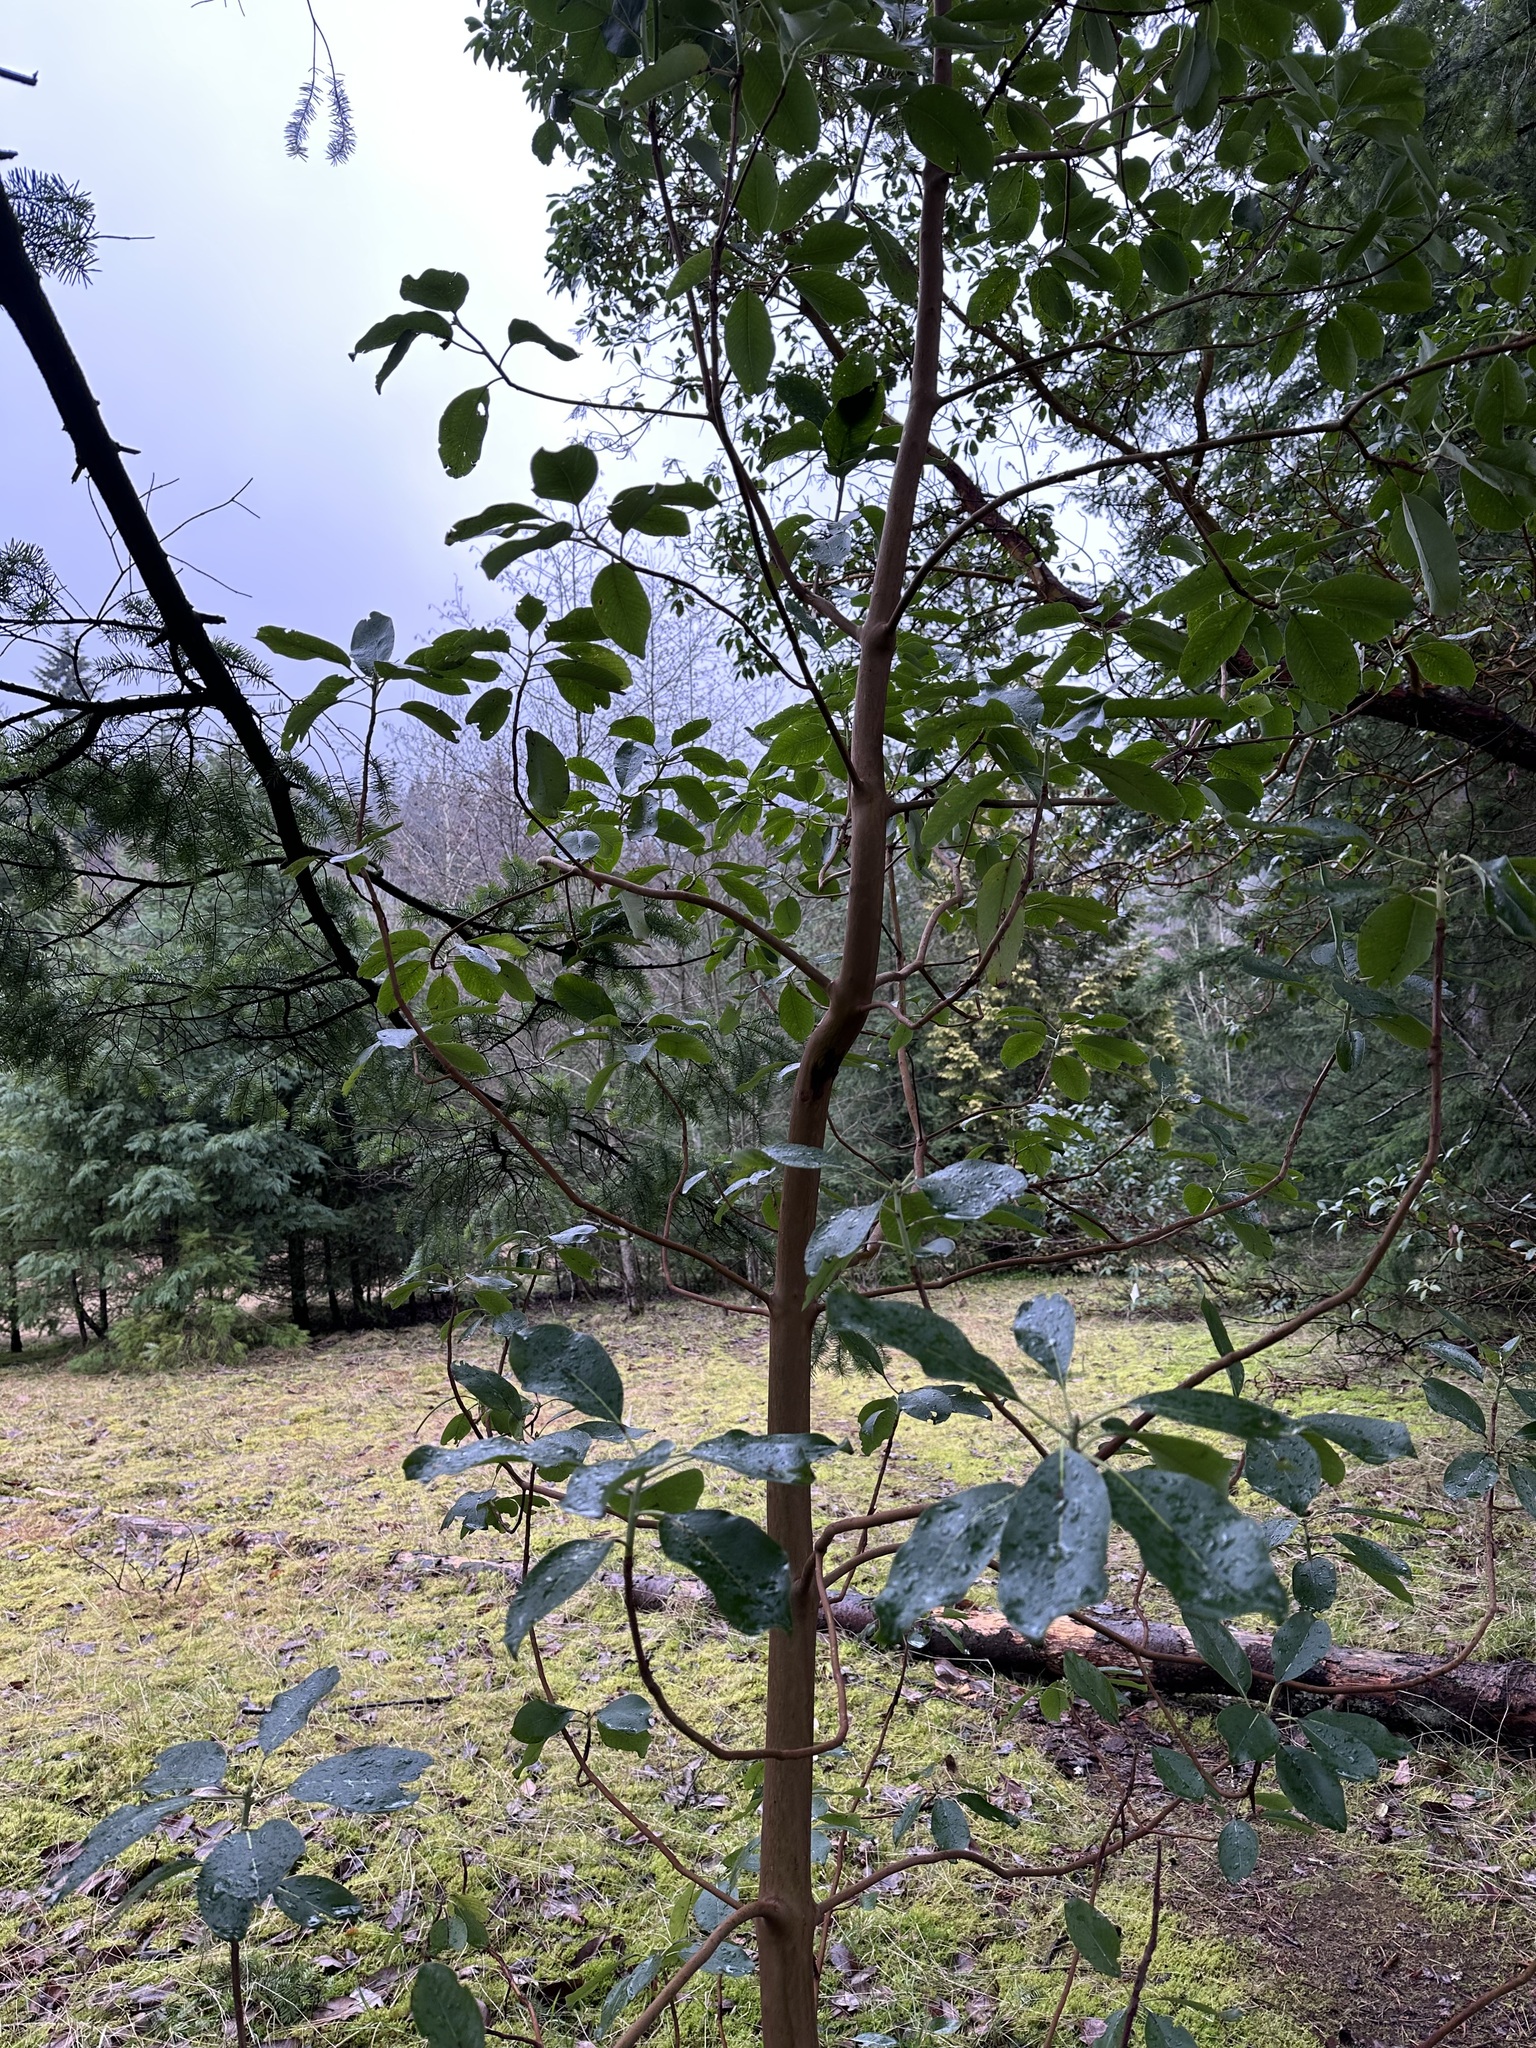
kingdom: Plantae
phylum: Tracheophyta
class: Magnoliopsida
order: Ericales
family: Ericaceae
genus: Arbutus
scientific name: Arbutus menziesii
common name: Pacific madrone
